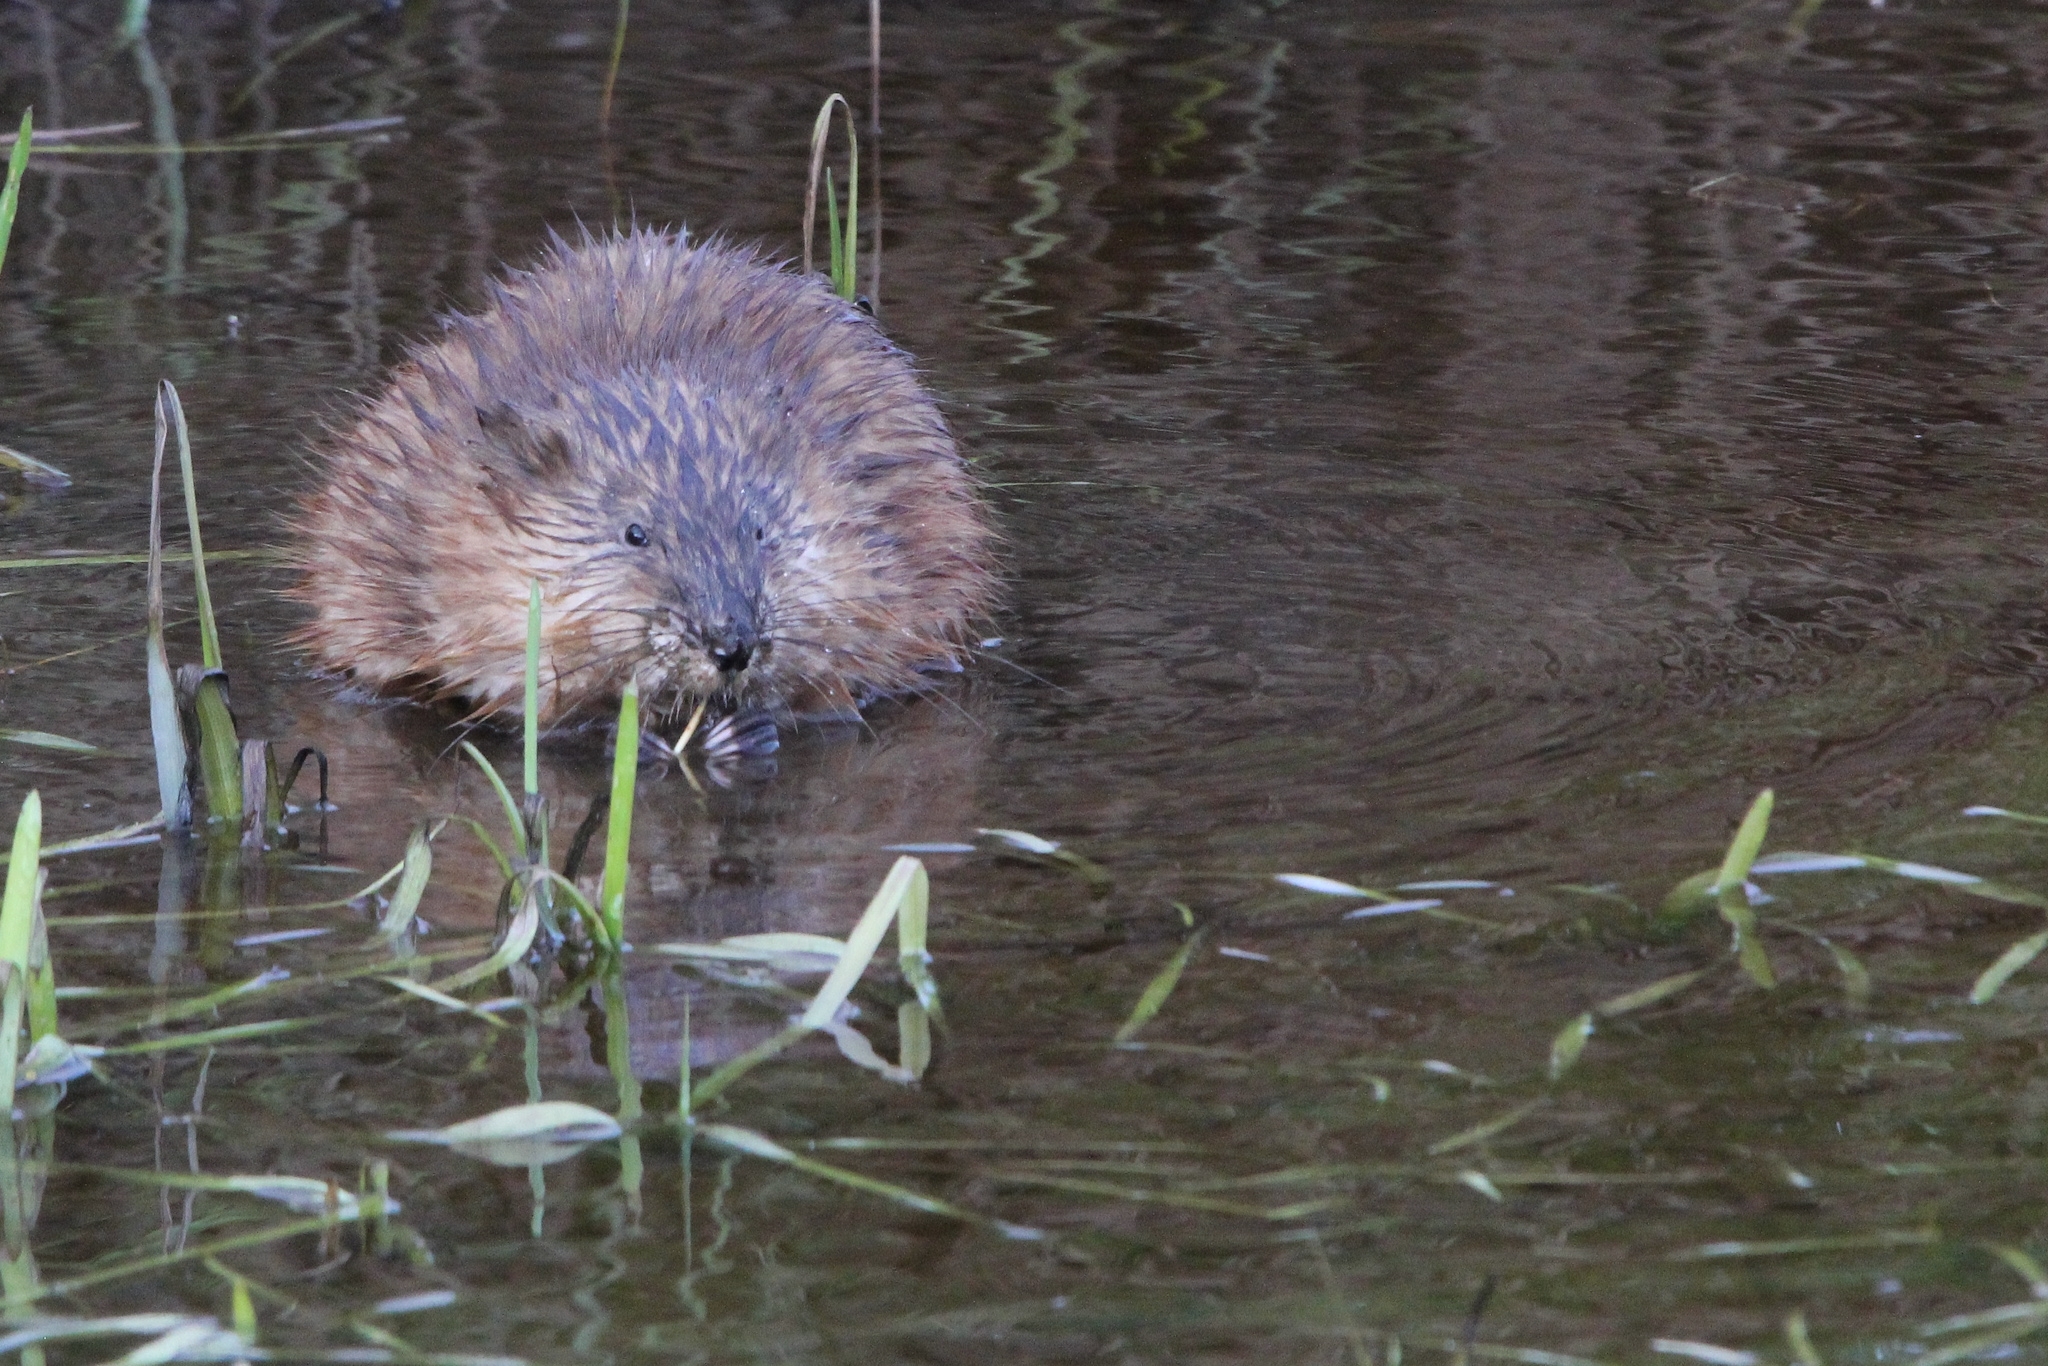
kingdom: Animalia
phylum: Chordata
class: Mammalia
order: Rodentia
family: Cricetidae
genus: Ondatra
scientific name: Ondatra zibethicus
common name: Muskrat
